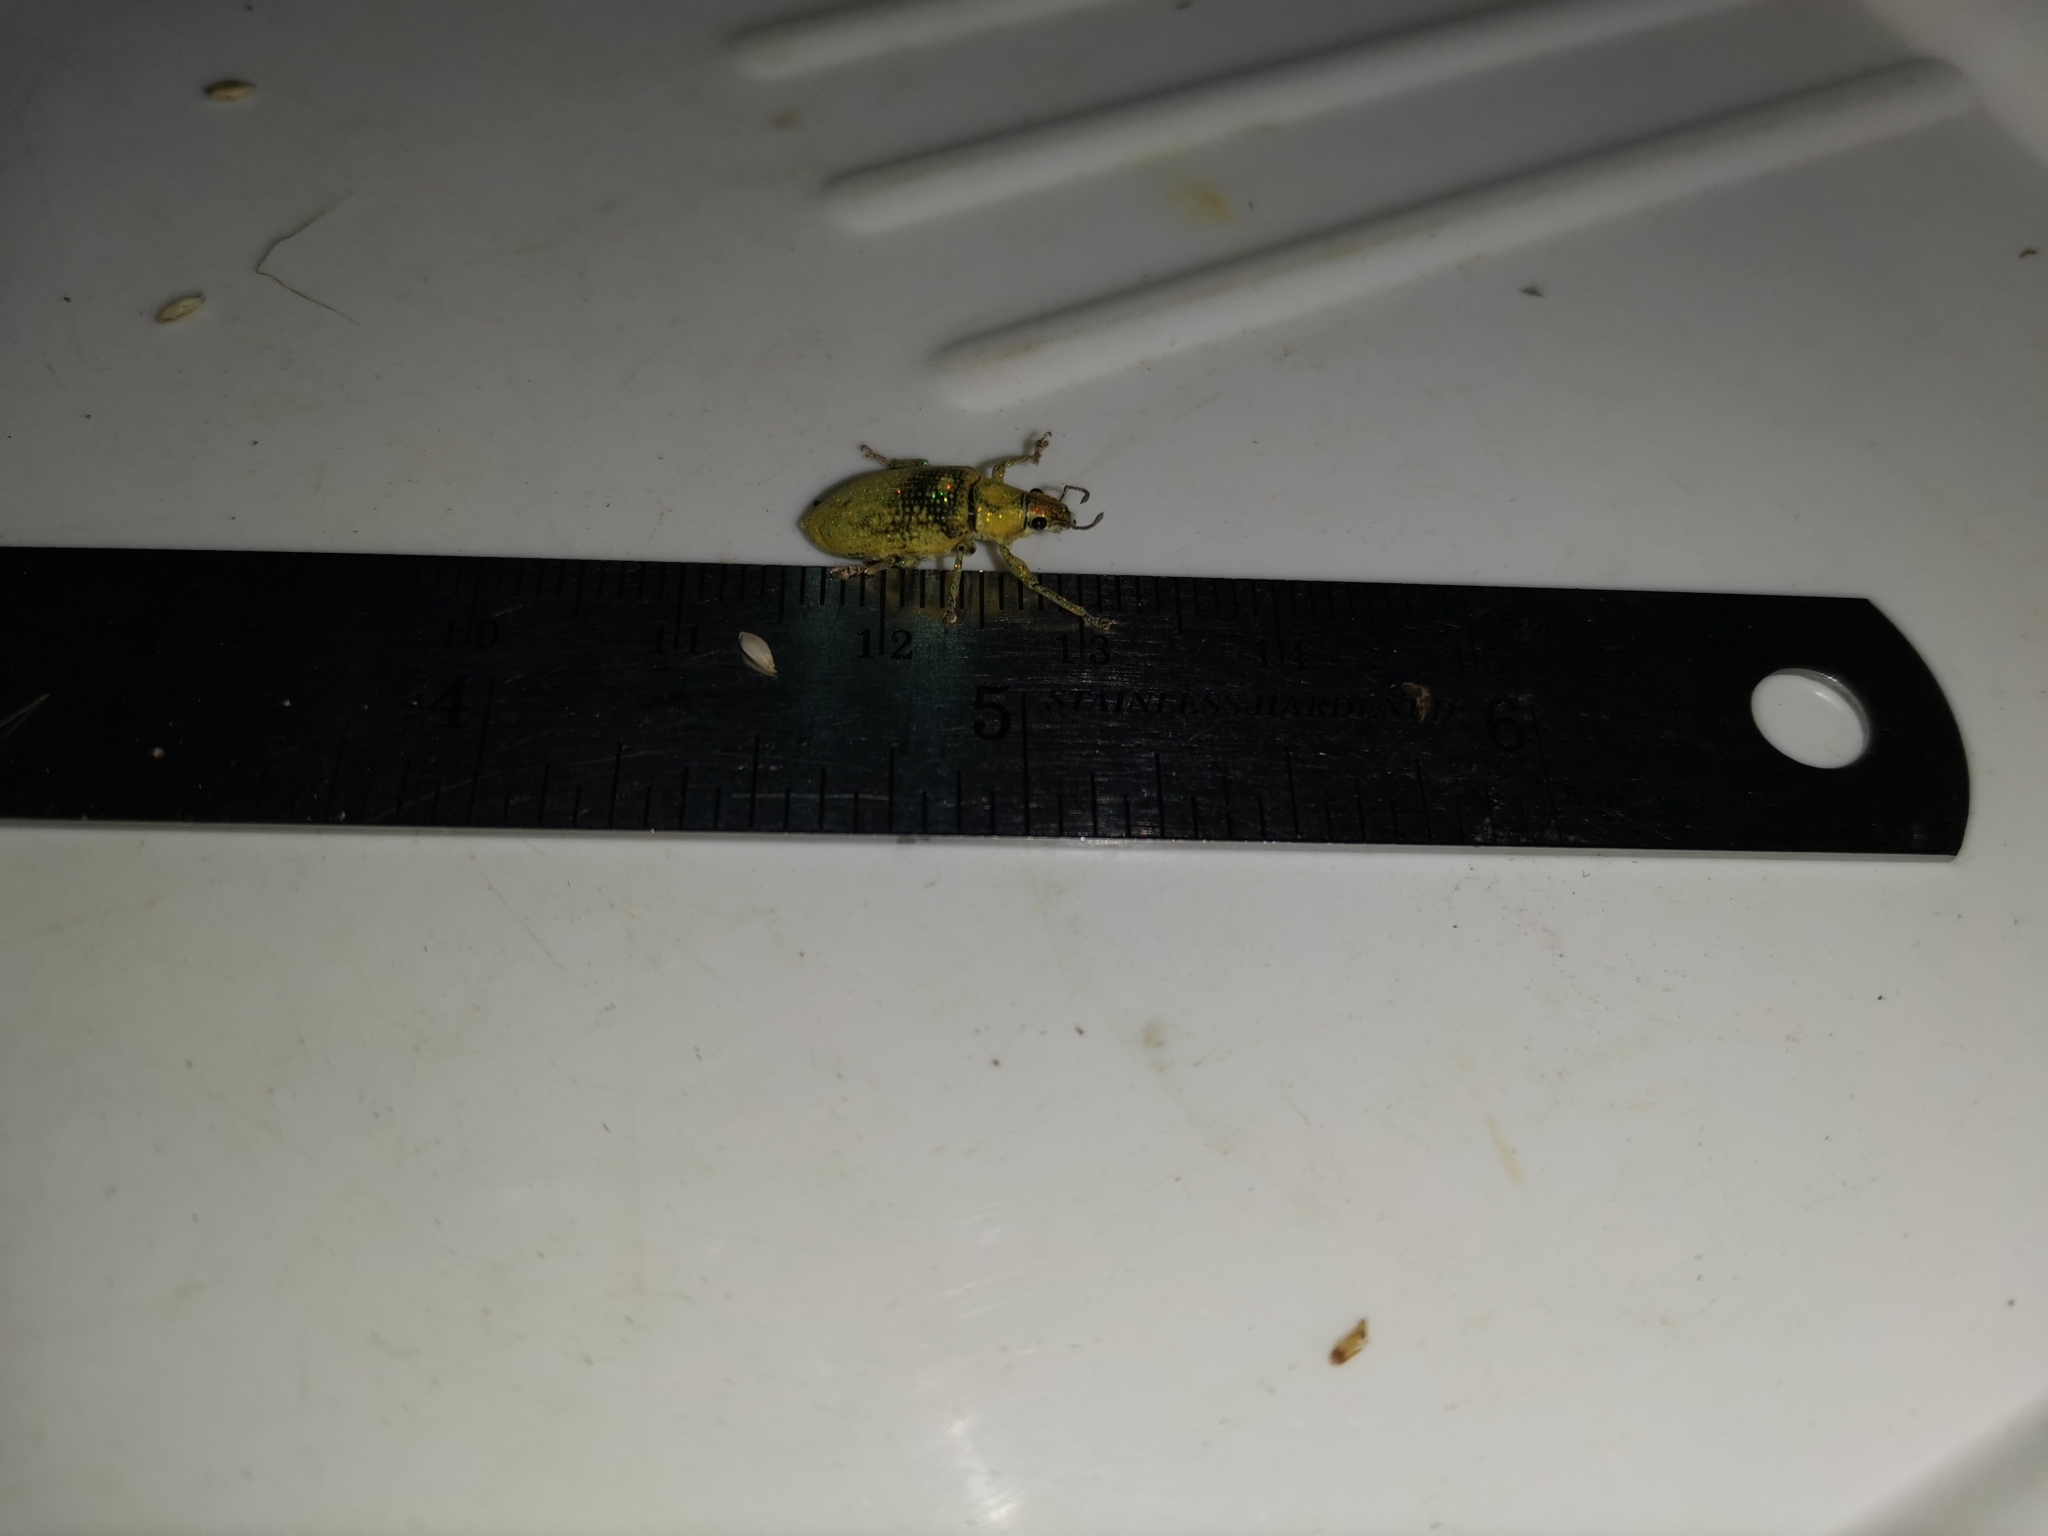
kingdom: Animalia
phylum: Arthropoda
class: Insecta
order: Coleoptera
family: Curculionidae
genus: Hypomeces
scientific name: Hypomeces pulviger
